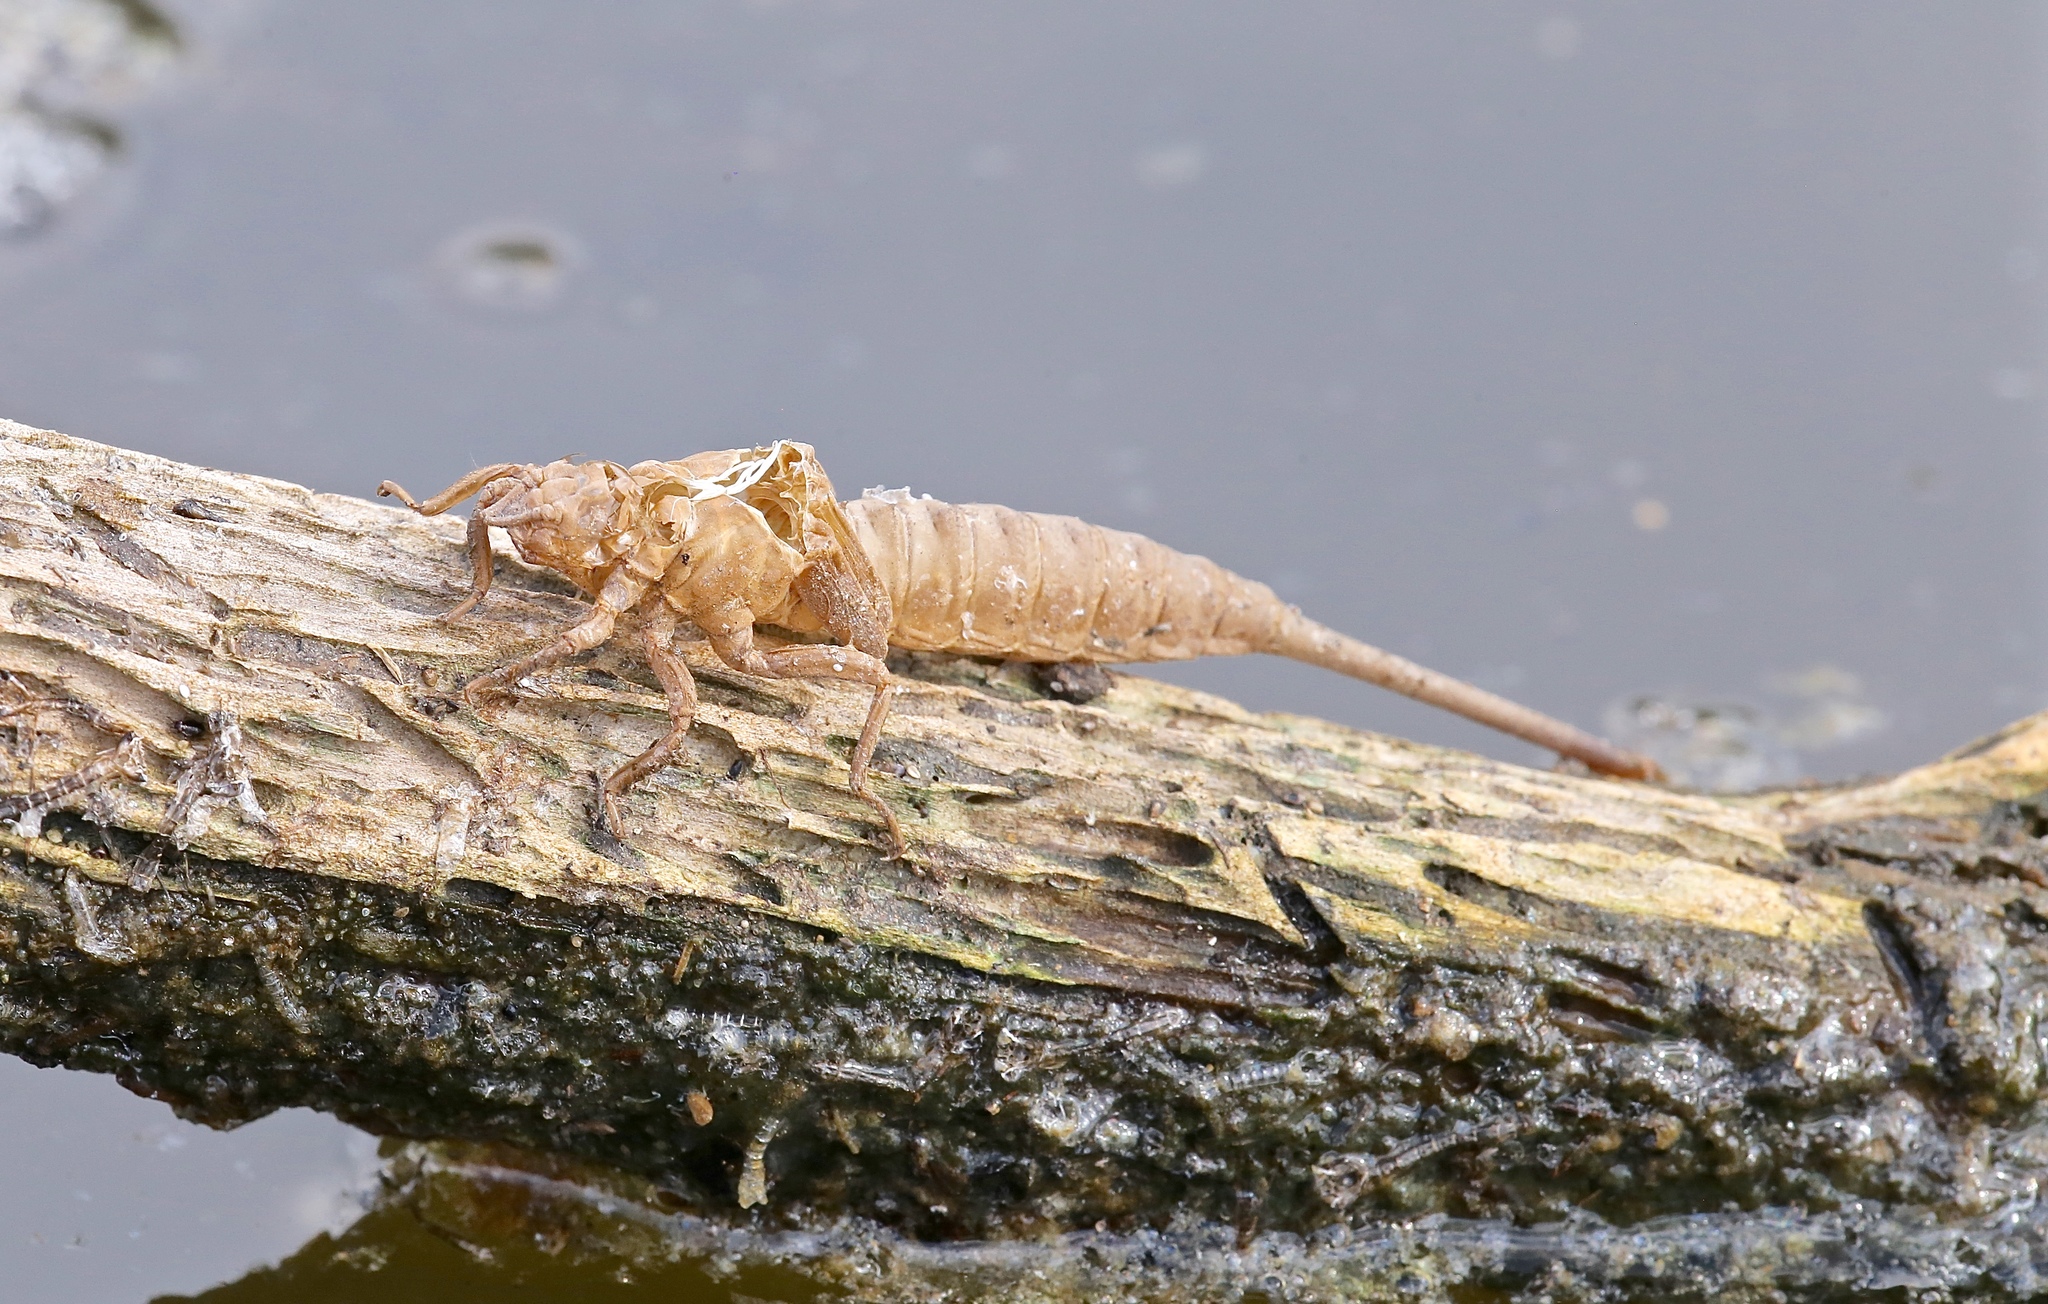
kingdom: Animalia
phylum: Arthropoda
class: Insecta
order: Odonata
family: Gomphidae
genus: Aphylla
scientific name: Aphylla williamsoni
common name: Two-striped forceptail
